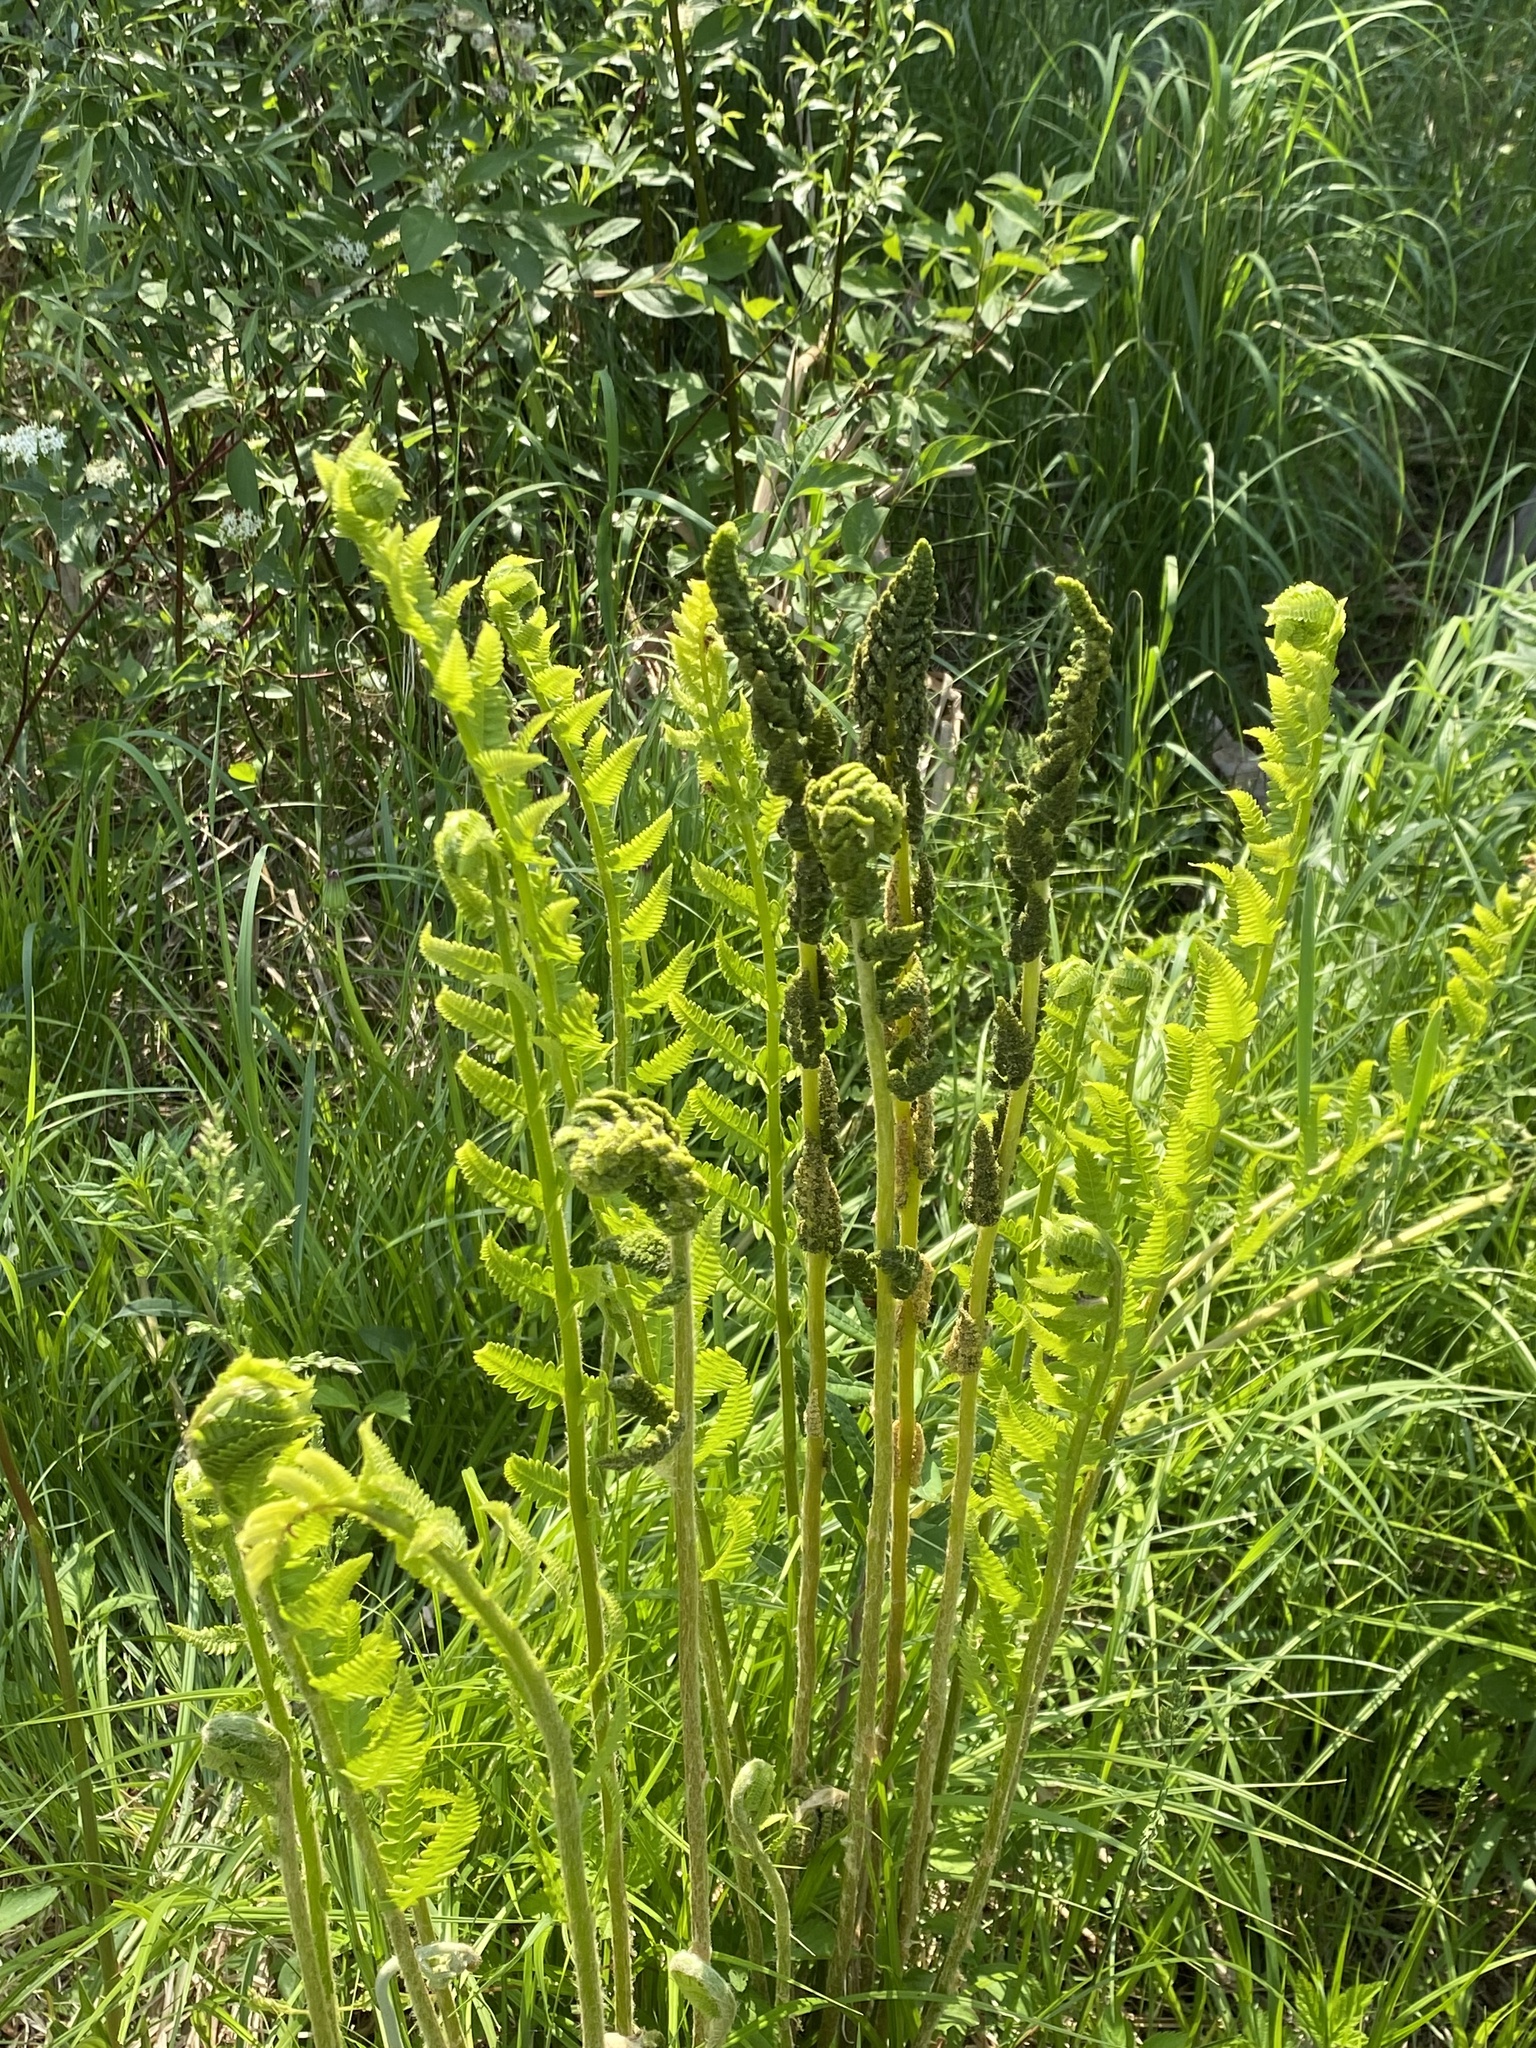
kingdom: Plantae
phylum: Tracheophyta
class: Polypodiopsida
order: Osmundales
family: Osmundaceae
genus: Osmundastrum
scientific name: Osmundastrum cinnamomeum
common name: Cinnamon fern
